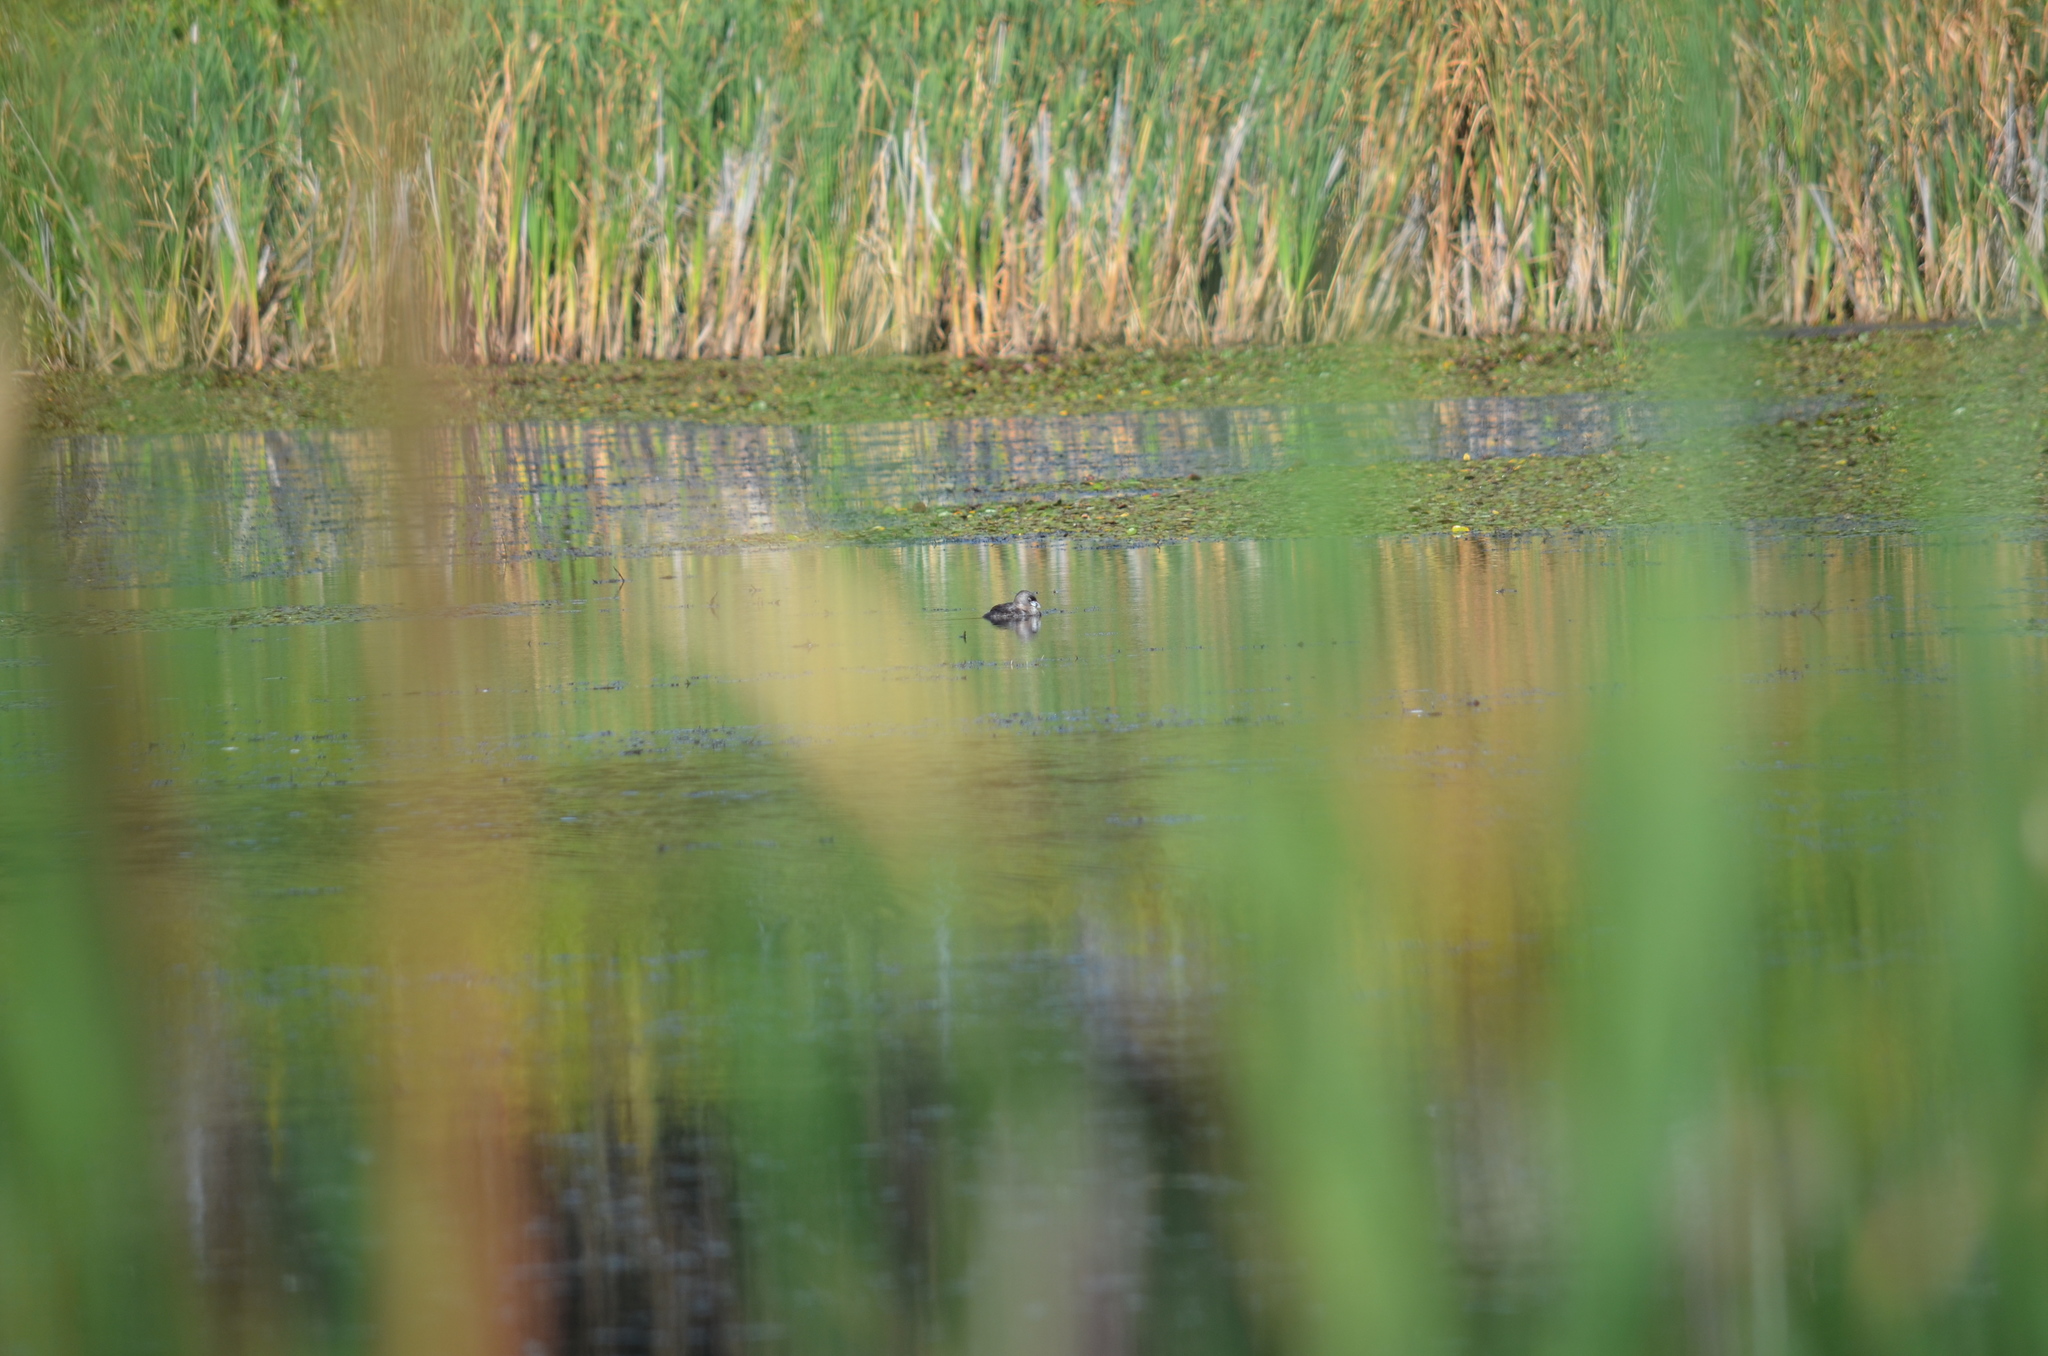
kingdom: Animalia
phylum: Chordata
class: Aves
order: Podicipediformes
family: Podicipedidae
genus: Podilymbus
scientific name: Podilymbus podiceps
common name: Pied-billed grebe
